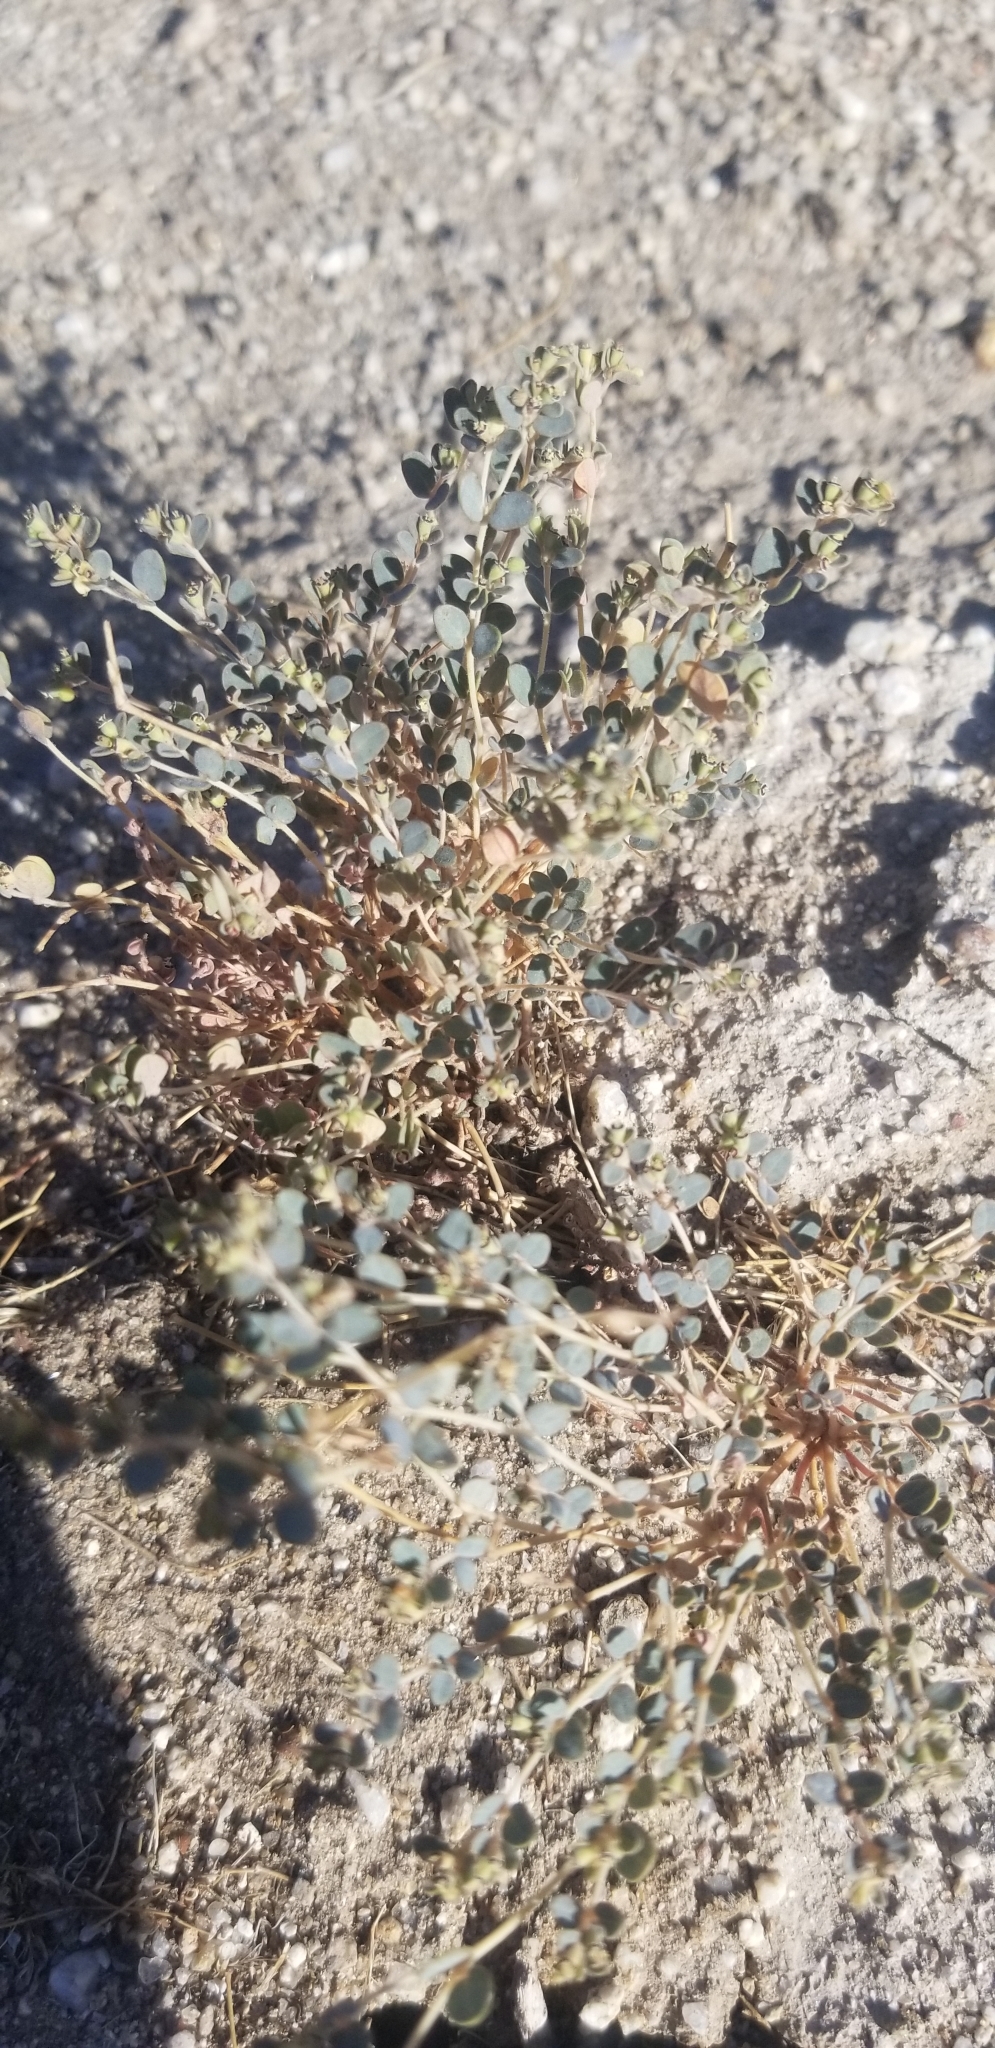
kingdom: Plantae
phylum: Tracheophyta
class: Magnoliopsida
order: Malpighiales
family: Euphorbiaceae
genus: Euphorbia
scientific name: Euphorbia polycarpa
